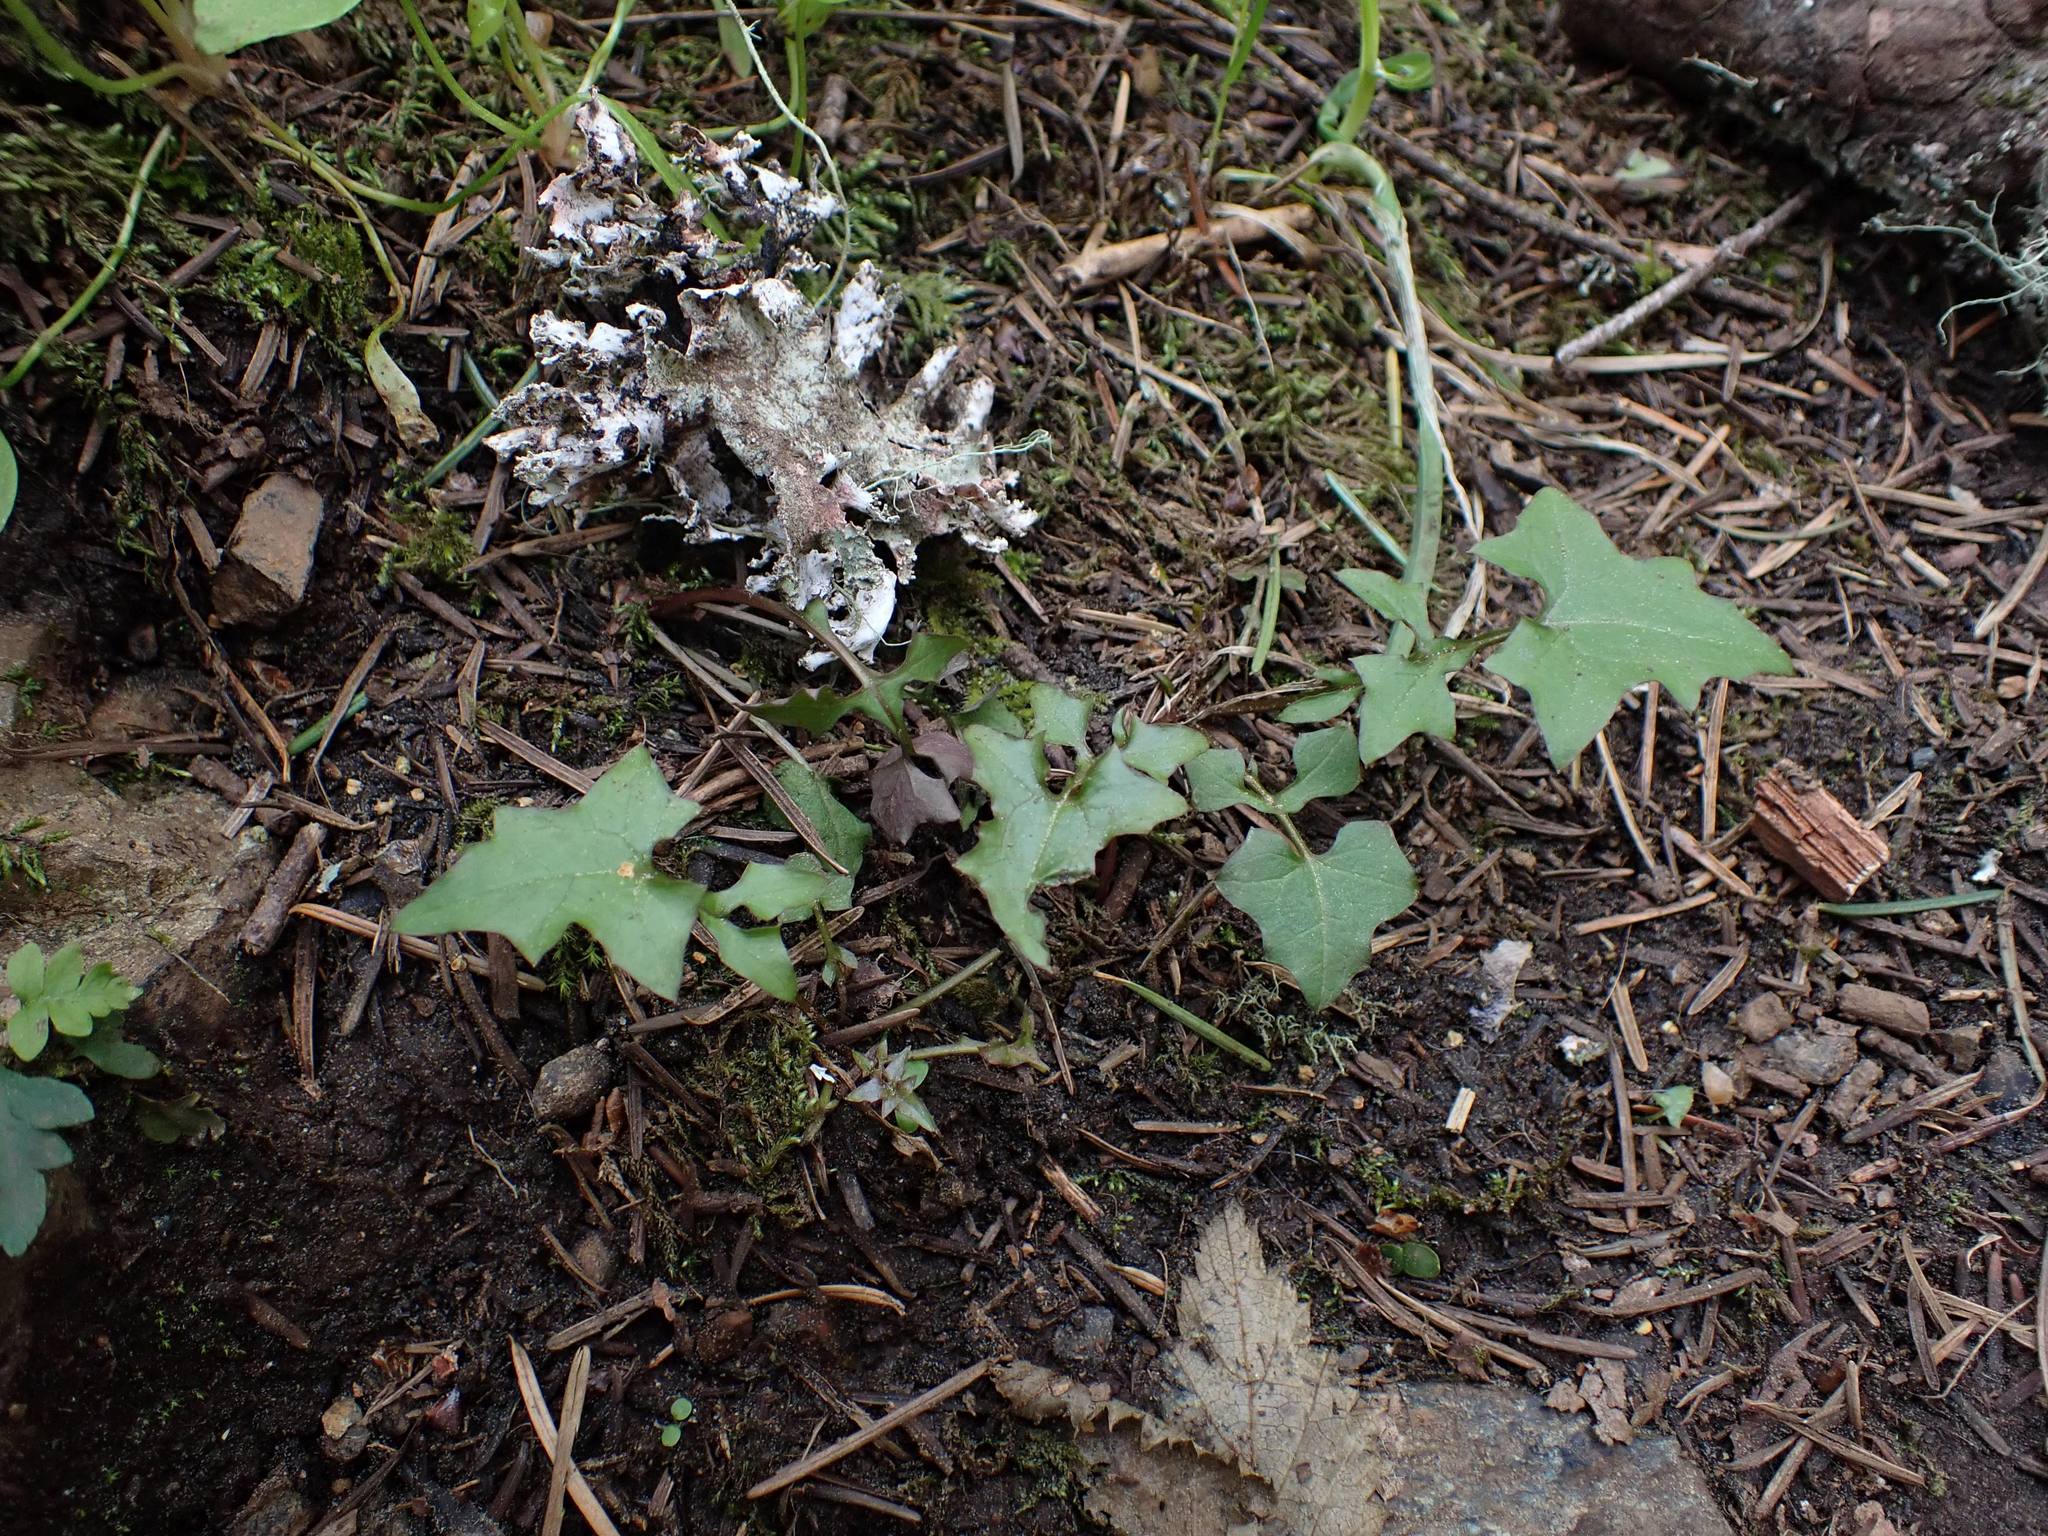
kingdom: Plantae
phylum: Tracheophyta
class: Magnoliopsida
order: Asterales
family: Asteraceae
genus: Mycelis
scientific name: Mycelis muralis
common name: Wall lettuce
